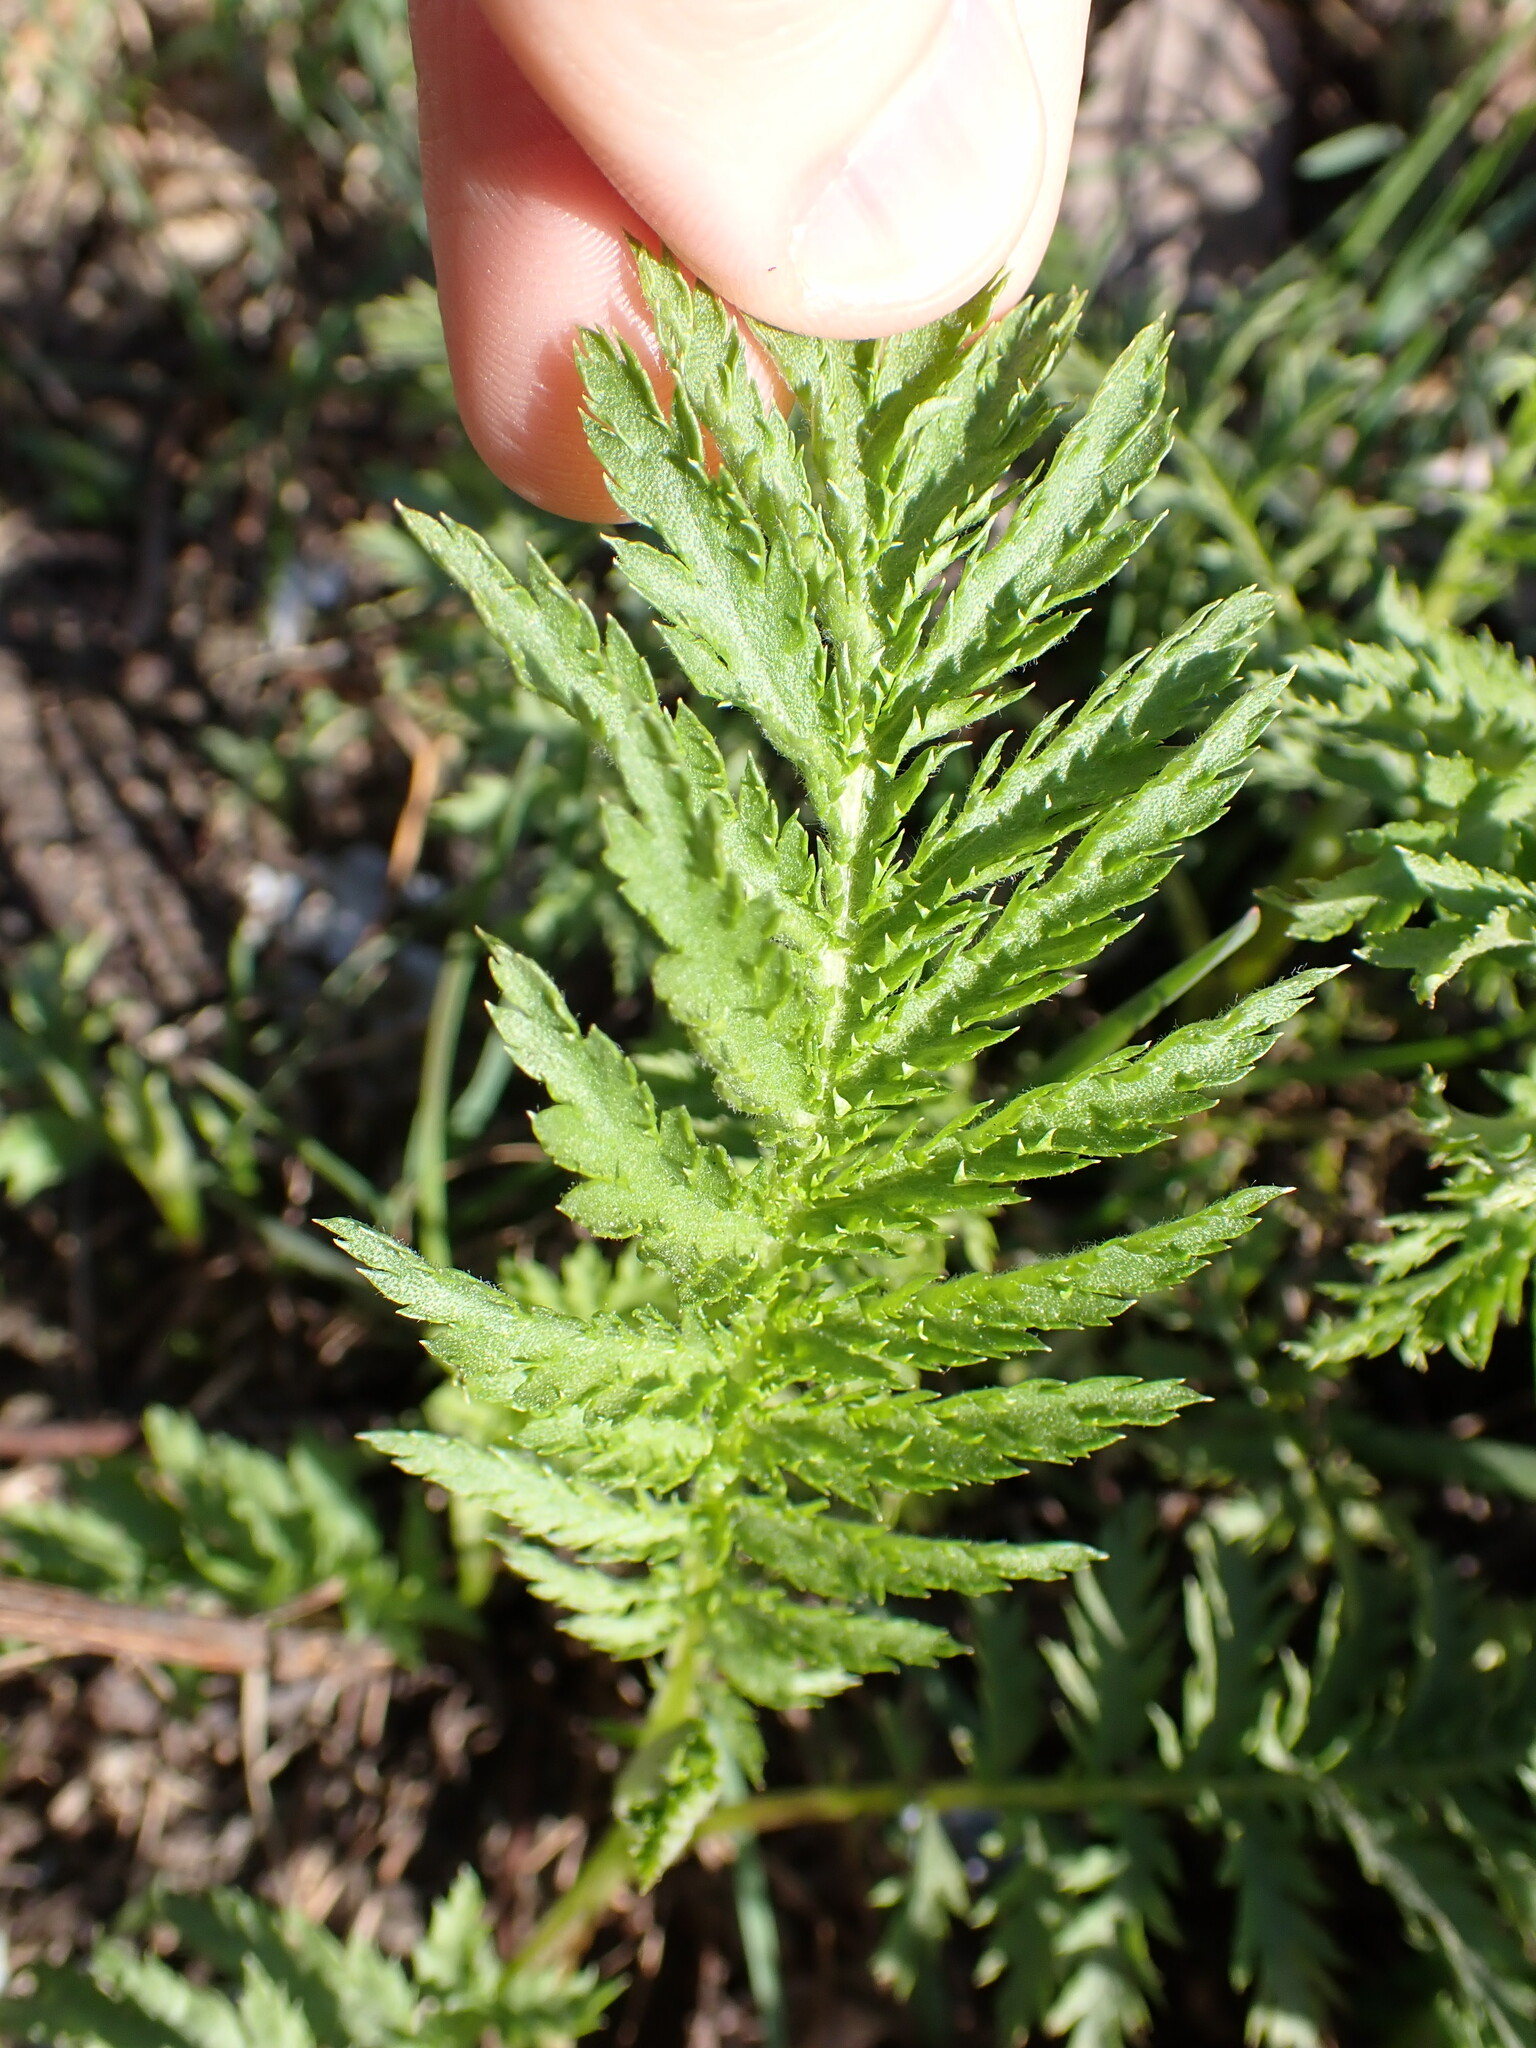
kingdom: Plantae
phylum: Tracheophyta
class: Magnoliopsida
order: Asterales
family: Asteraceae
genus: Tanacetum
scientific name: Tanacetum vulgare
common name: Common tansy
